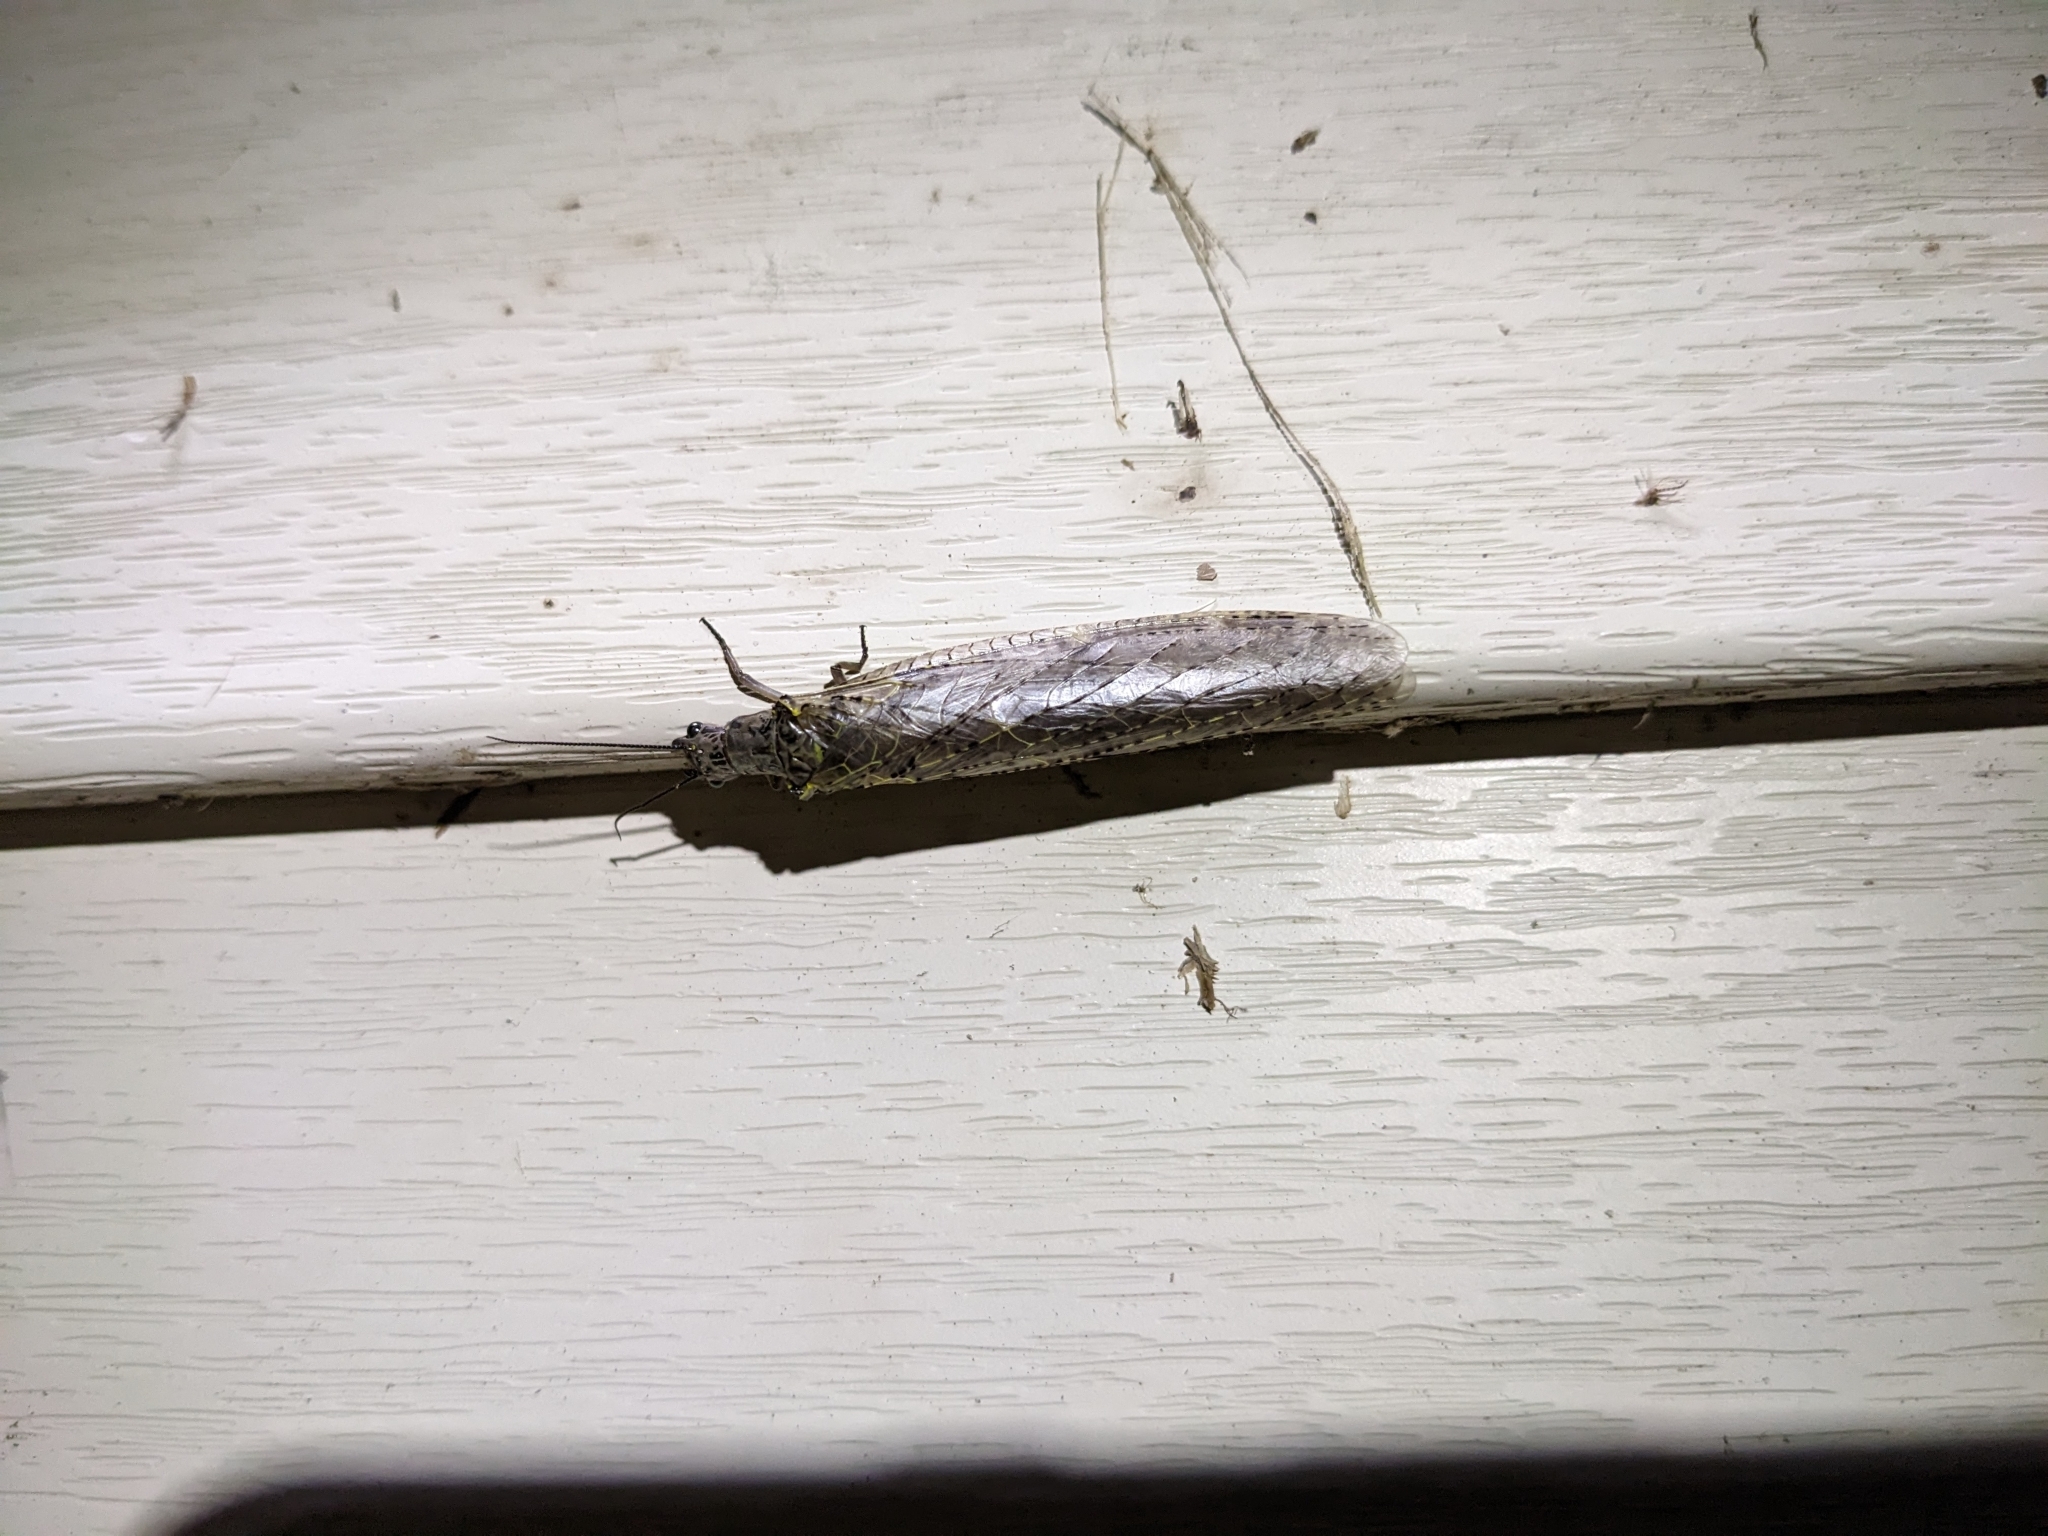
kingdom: Animalia
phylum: Arthropoda
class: Insecta
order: Megaloptera
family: Corydalidae
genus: Chauliodes
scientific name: Chauliodes rastricornis
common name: Spring fishfly
